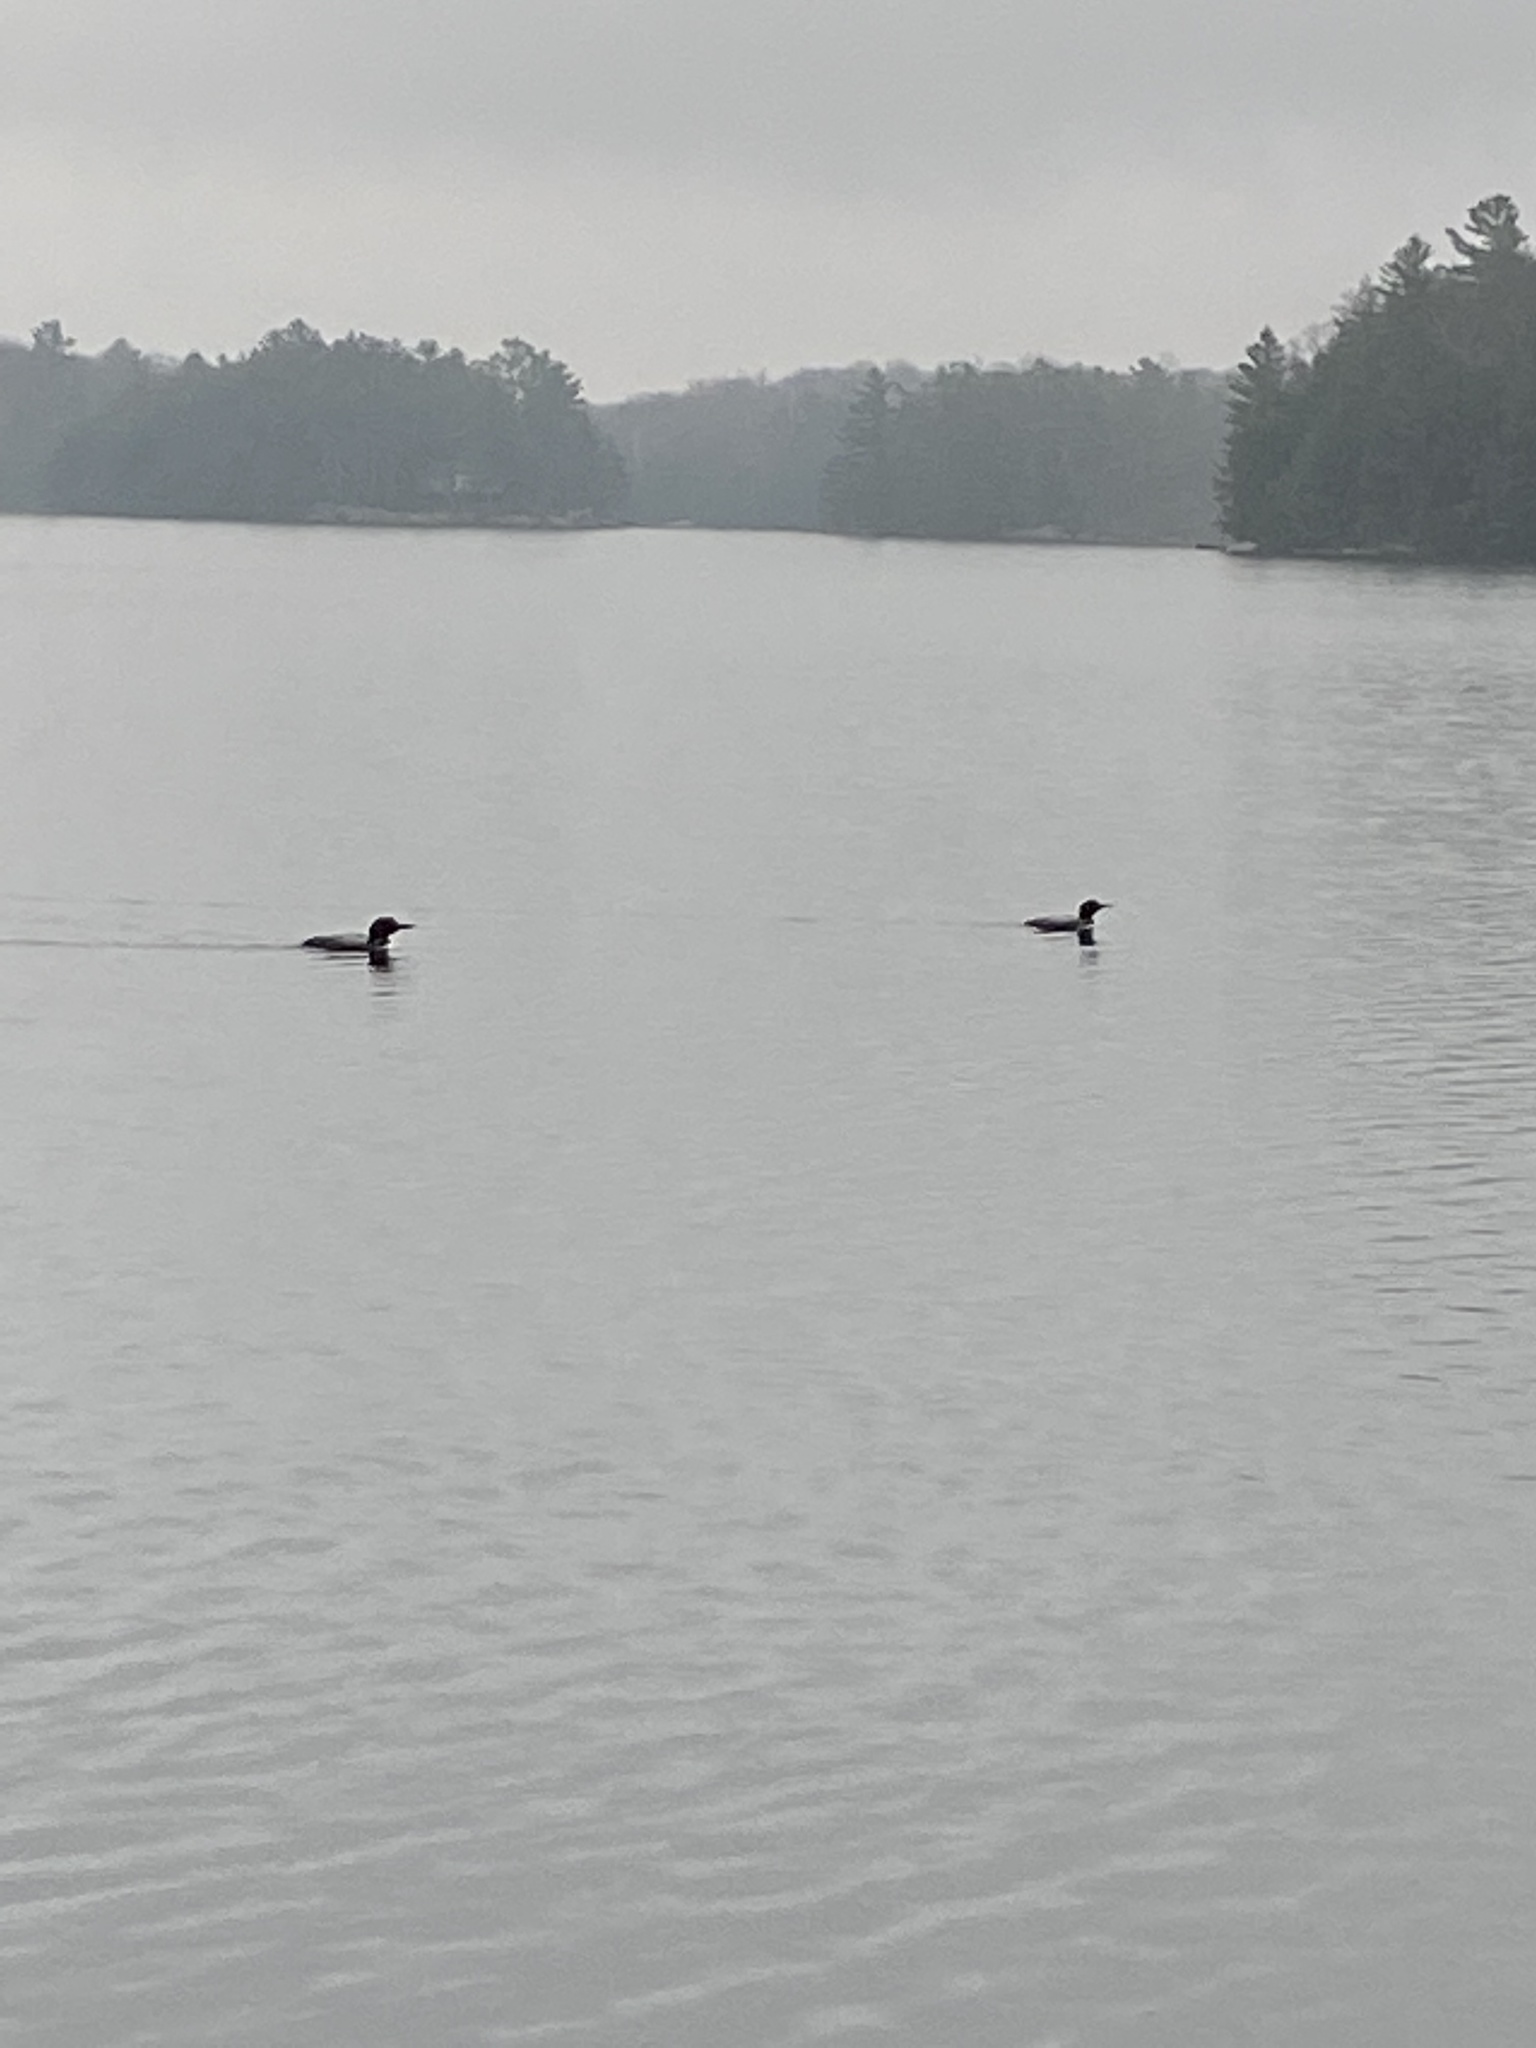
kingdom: Animalia
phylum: Chordata
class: Aves
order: Gaviiformes
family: Gaviidae
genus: Gavia
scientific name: Gavia immer
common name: Common loon
